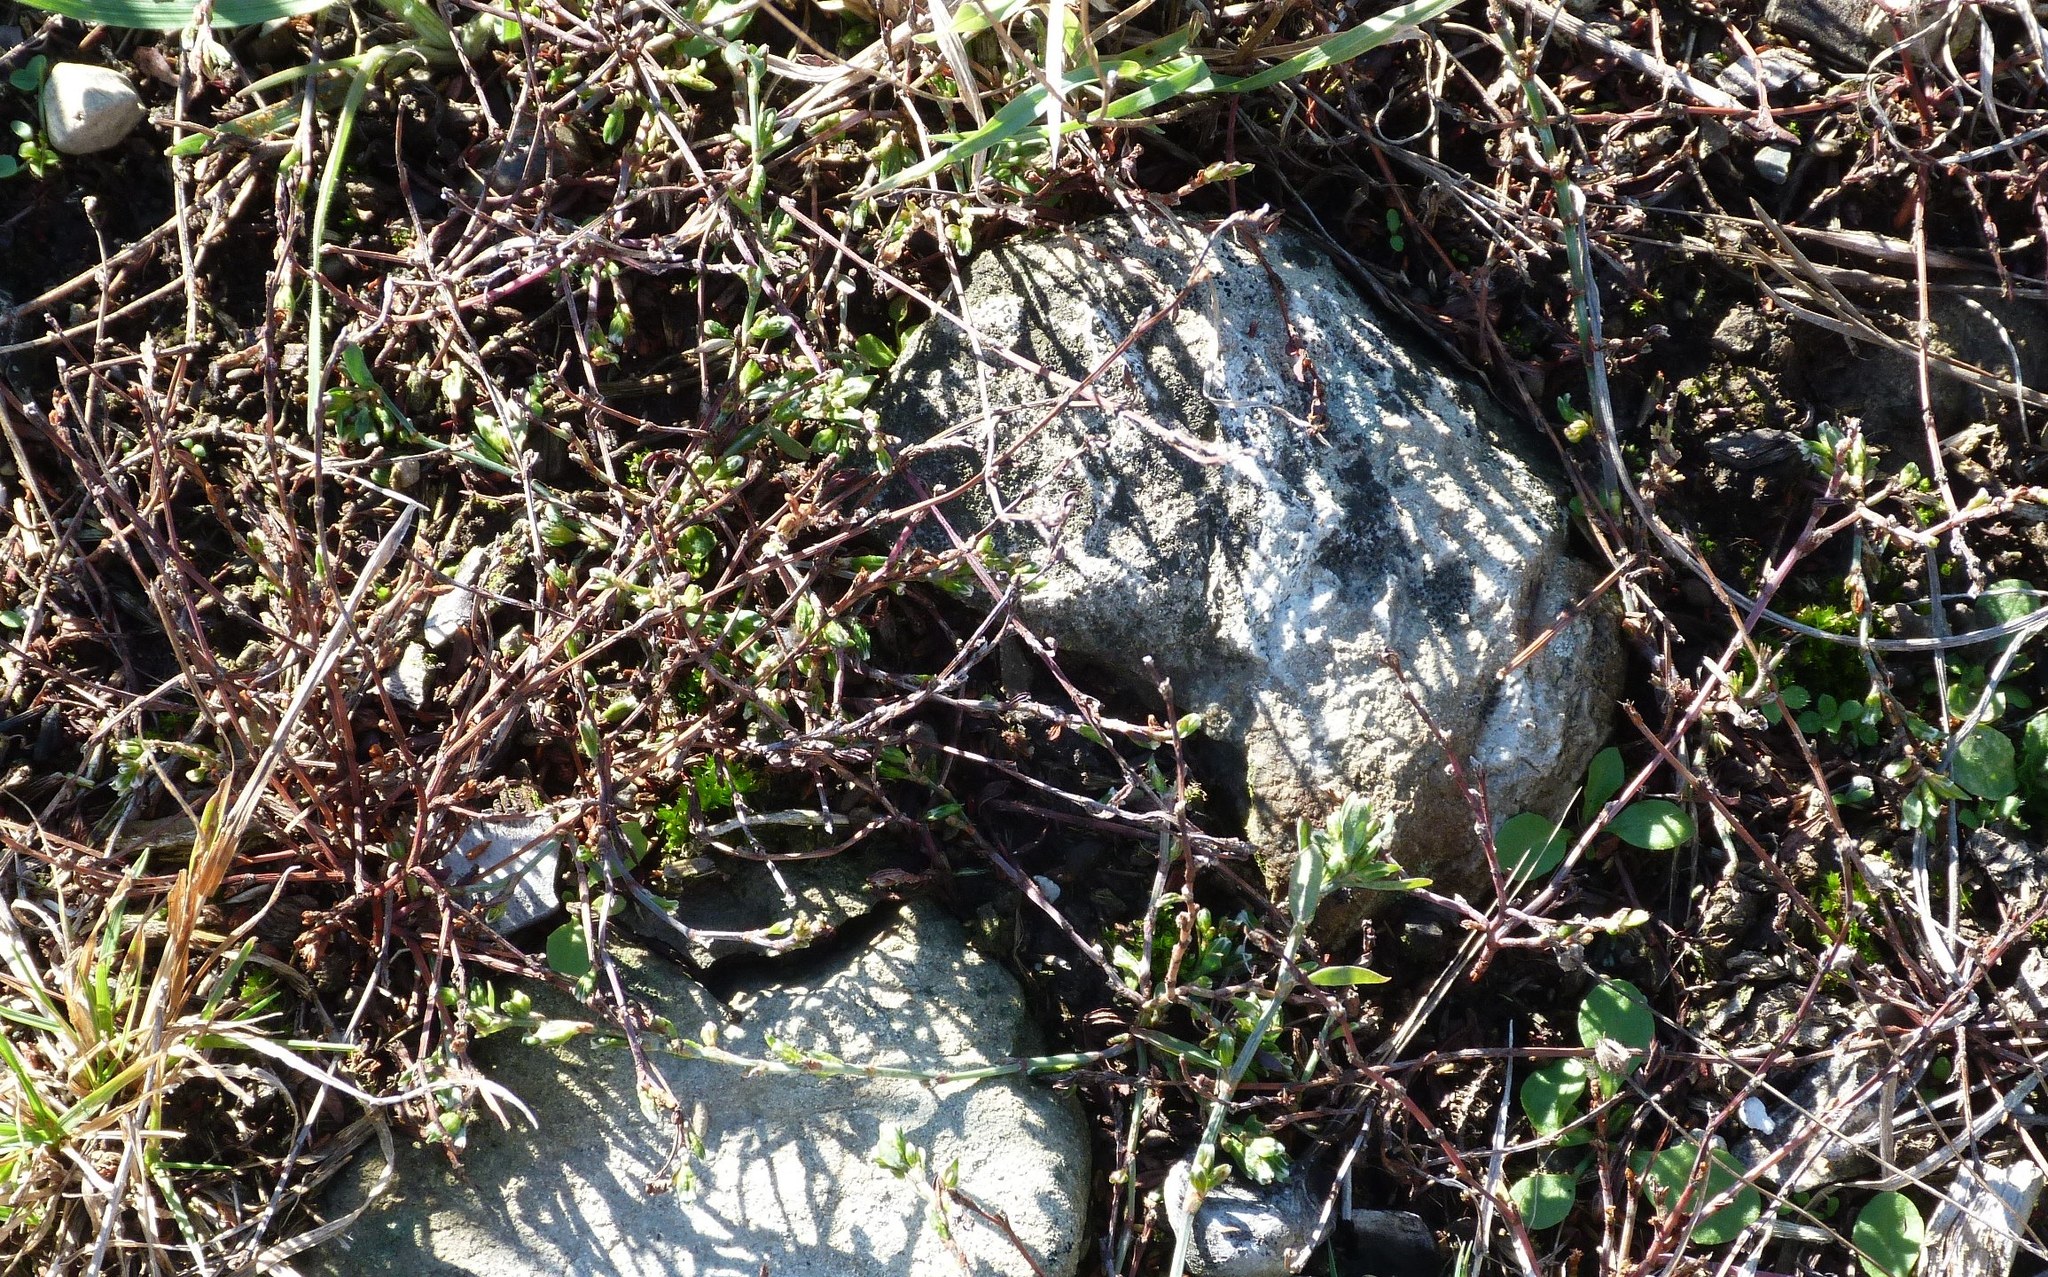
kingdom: Plantae
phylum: Tracheophyta
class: Magnoliopsida
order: Caryophyllales
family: Polygonaceae
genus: Muehlenbeckia
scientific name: Muehlenbeckia axillaris
